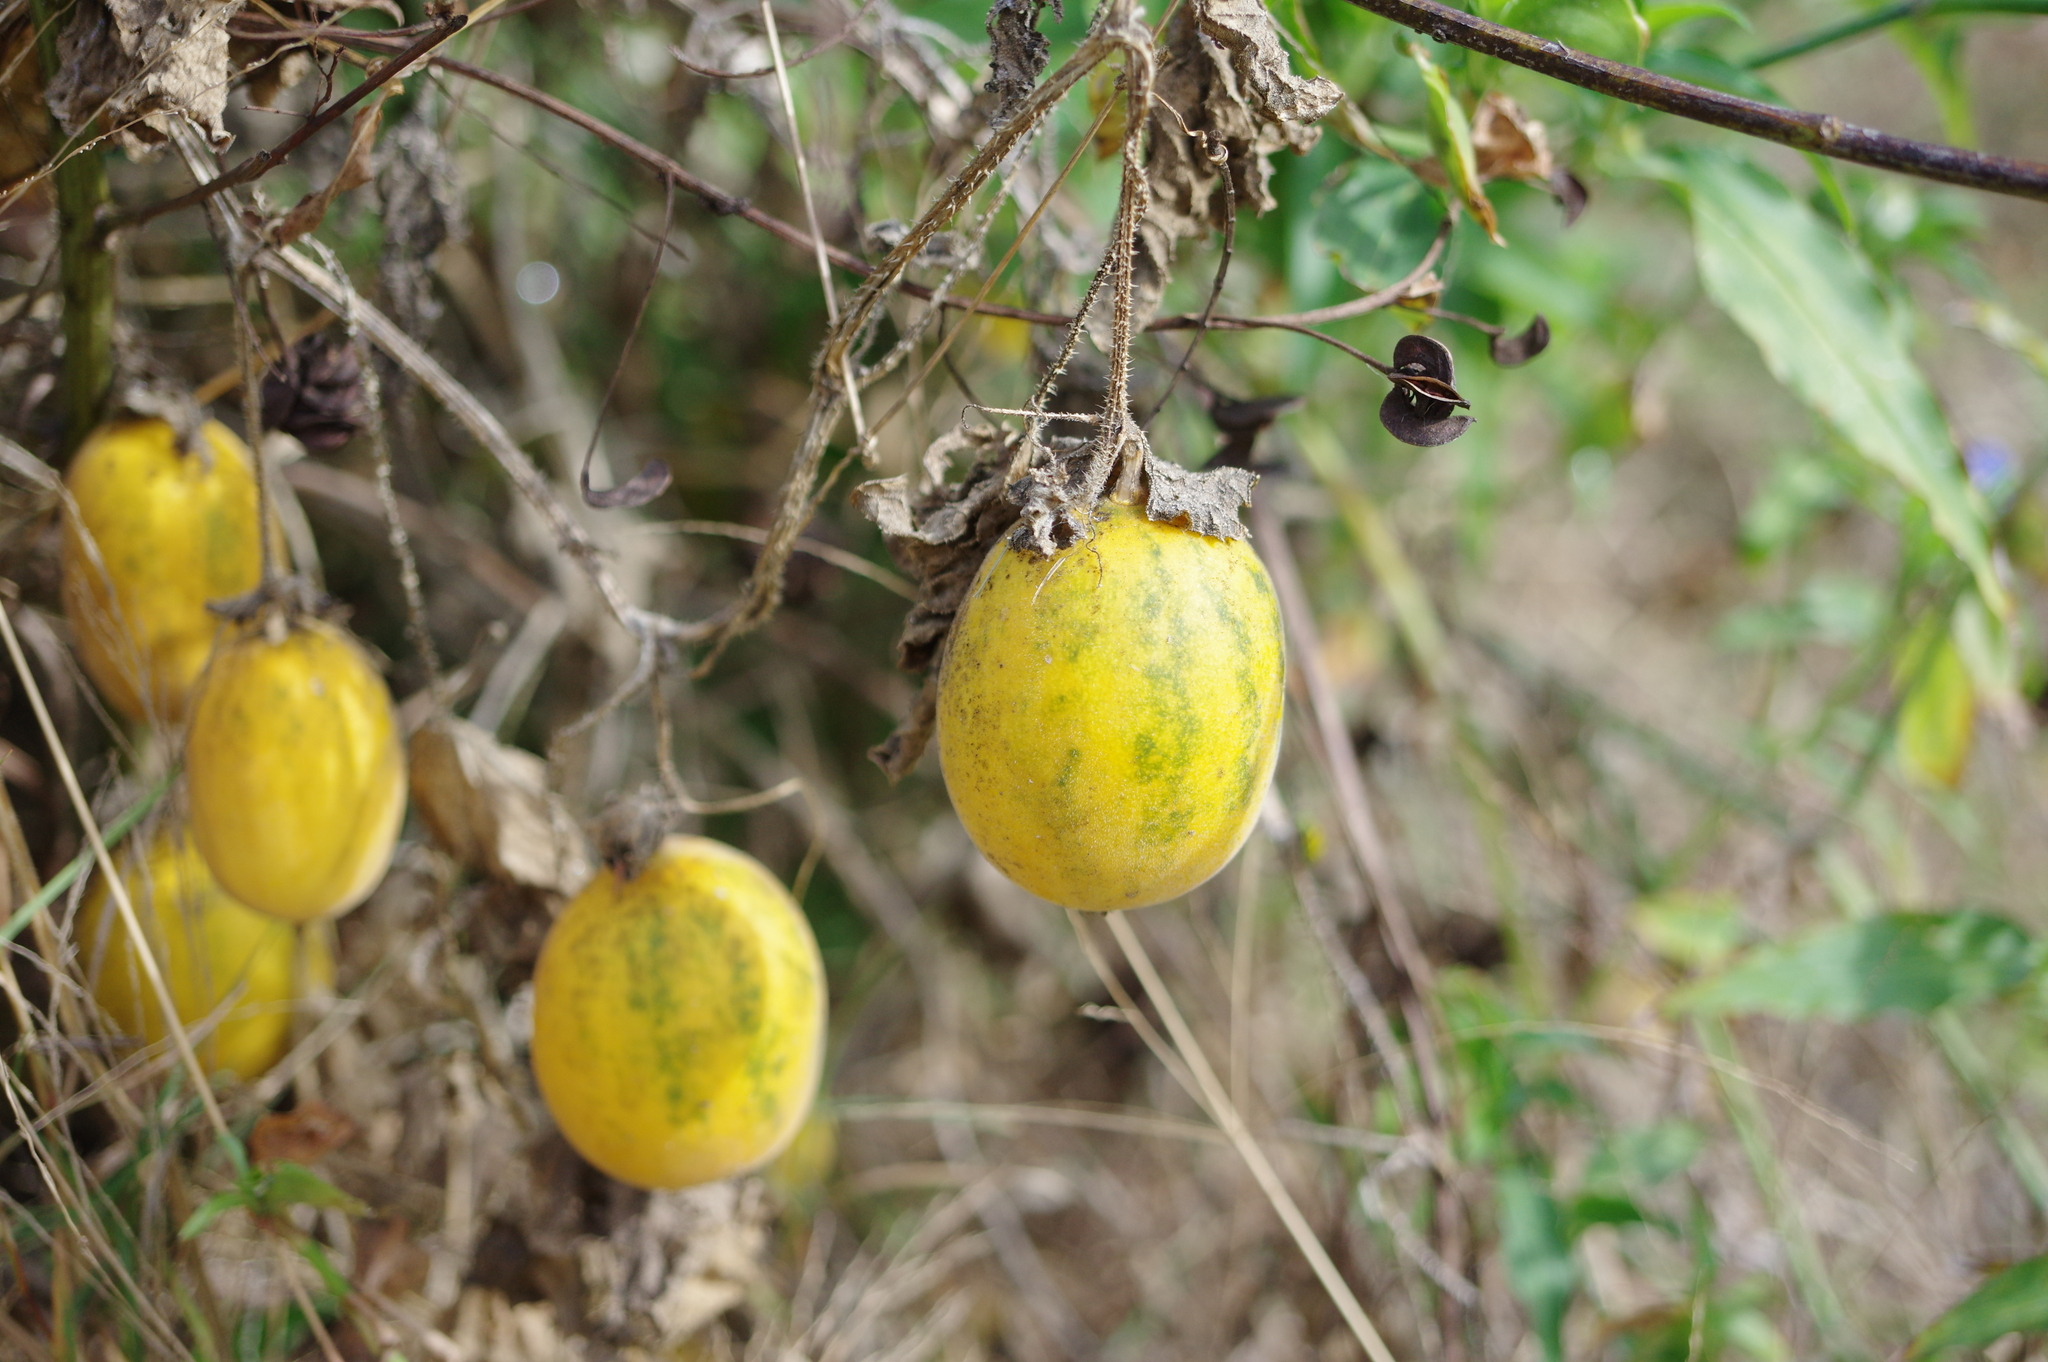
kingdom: Plantae
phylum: Tracheophyta
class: Magnoliopsida
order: Cucurbitales
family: Cucurbitaceae
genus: Cucumis
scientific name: Cucumis melo
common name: Melon
